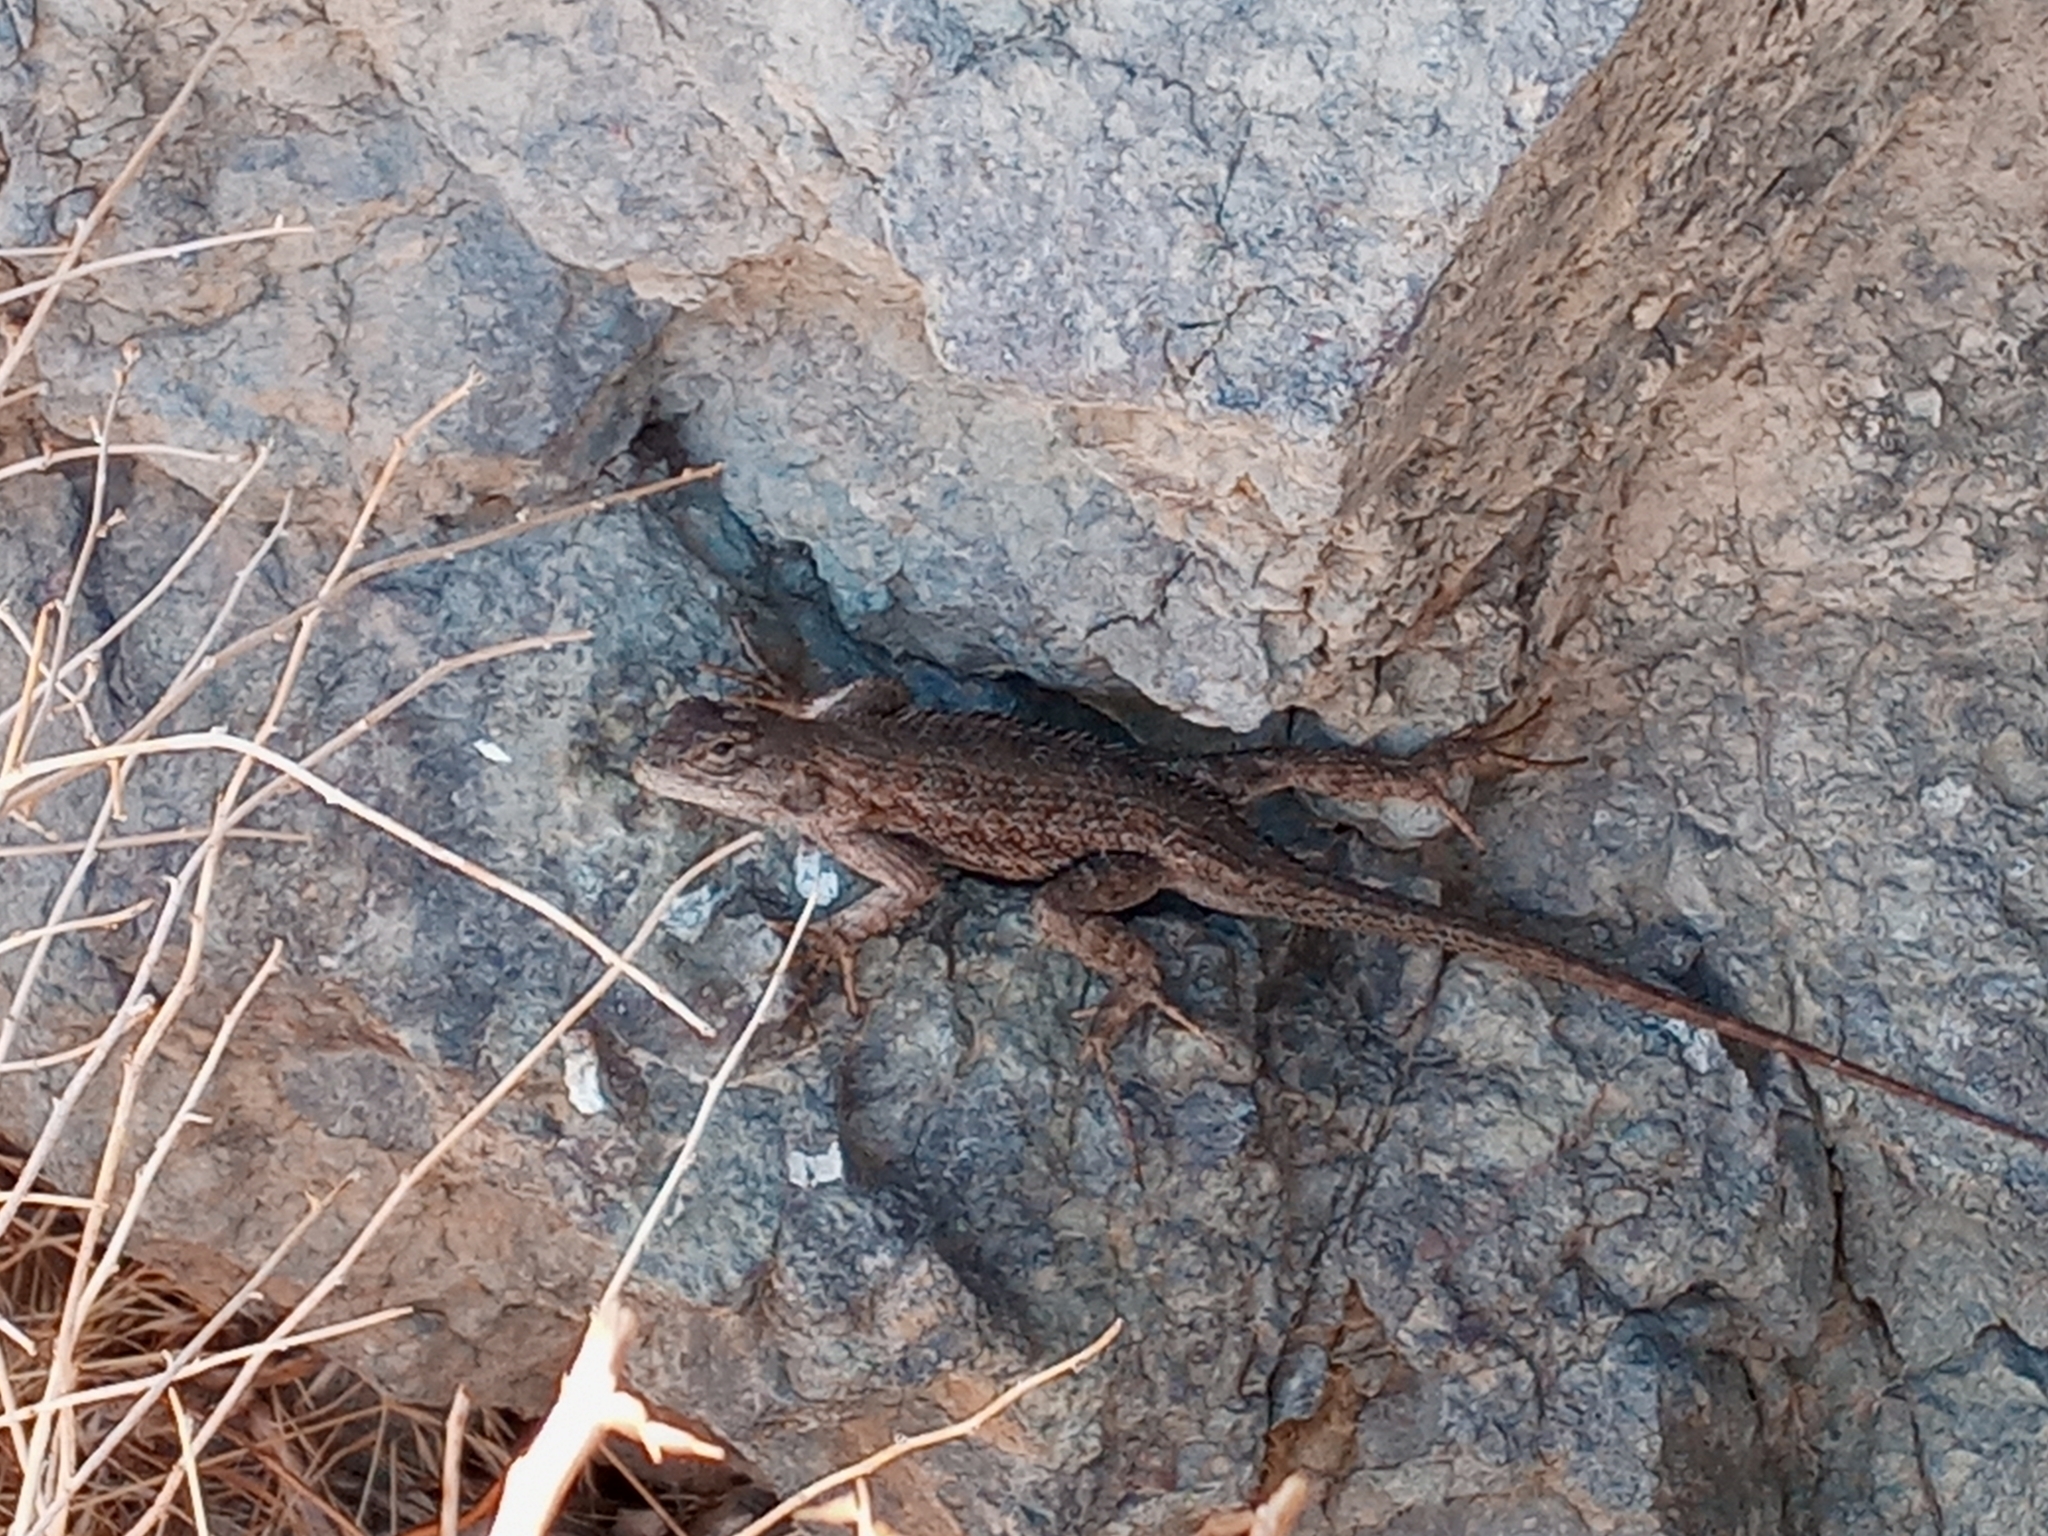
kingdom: Animalia
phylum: Chordata
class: Squamata
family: Phrynosomatidae
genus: Sceloporus
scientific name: Sceloporus occidentalis
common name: Western fence lizard
